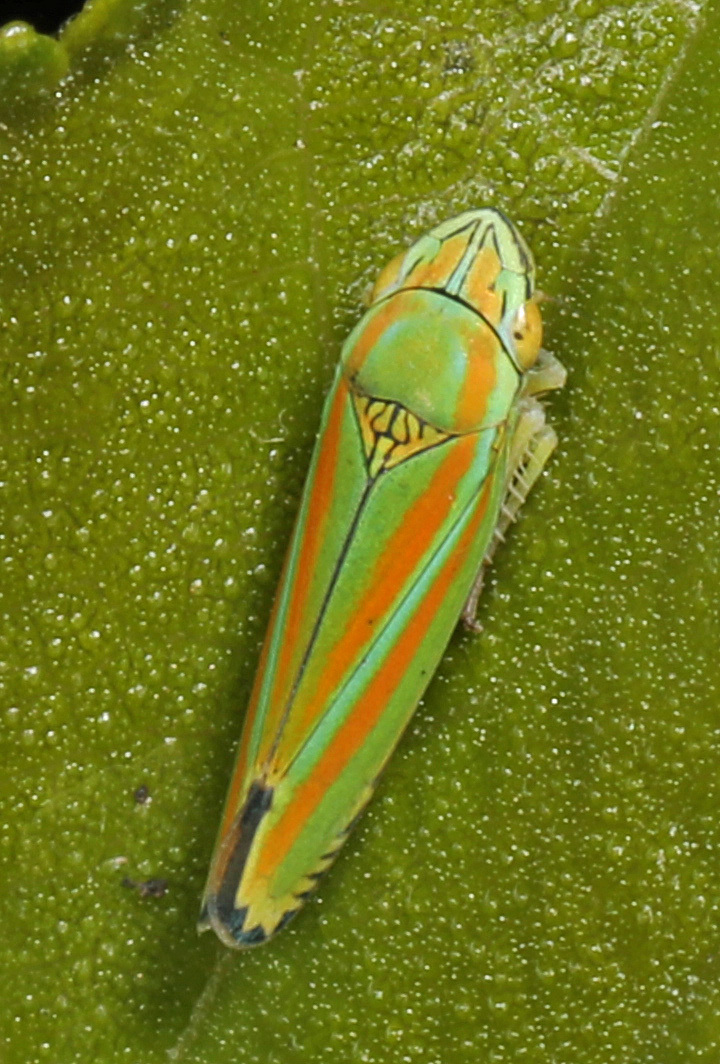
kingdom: Animalia
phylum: Arthropoda
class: Insecta
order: Hemiptera
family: Cicadellidae
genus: Graphocephala
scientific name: Graphocephala versuta
